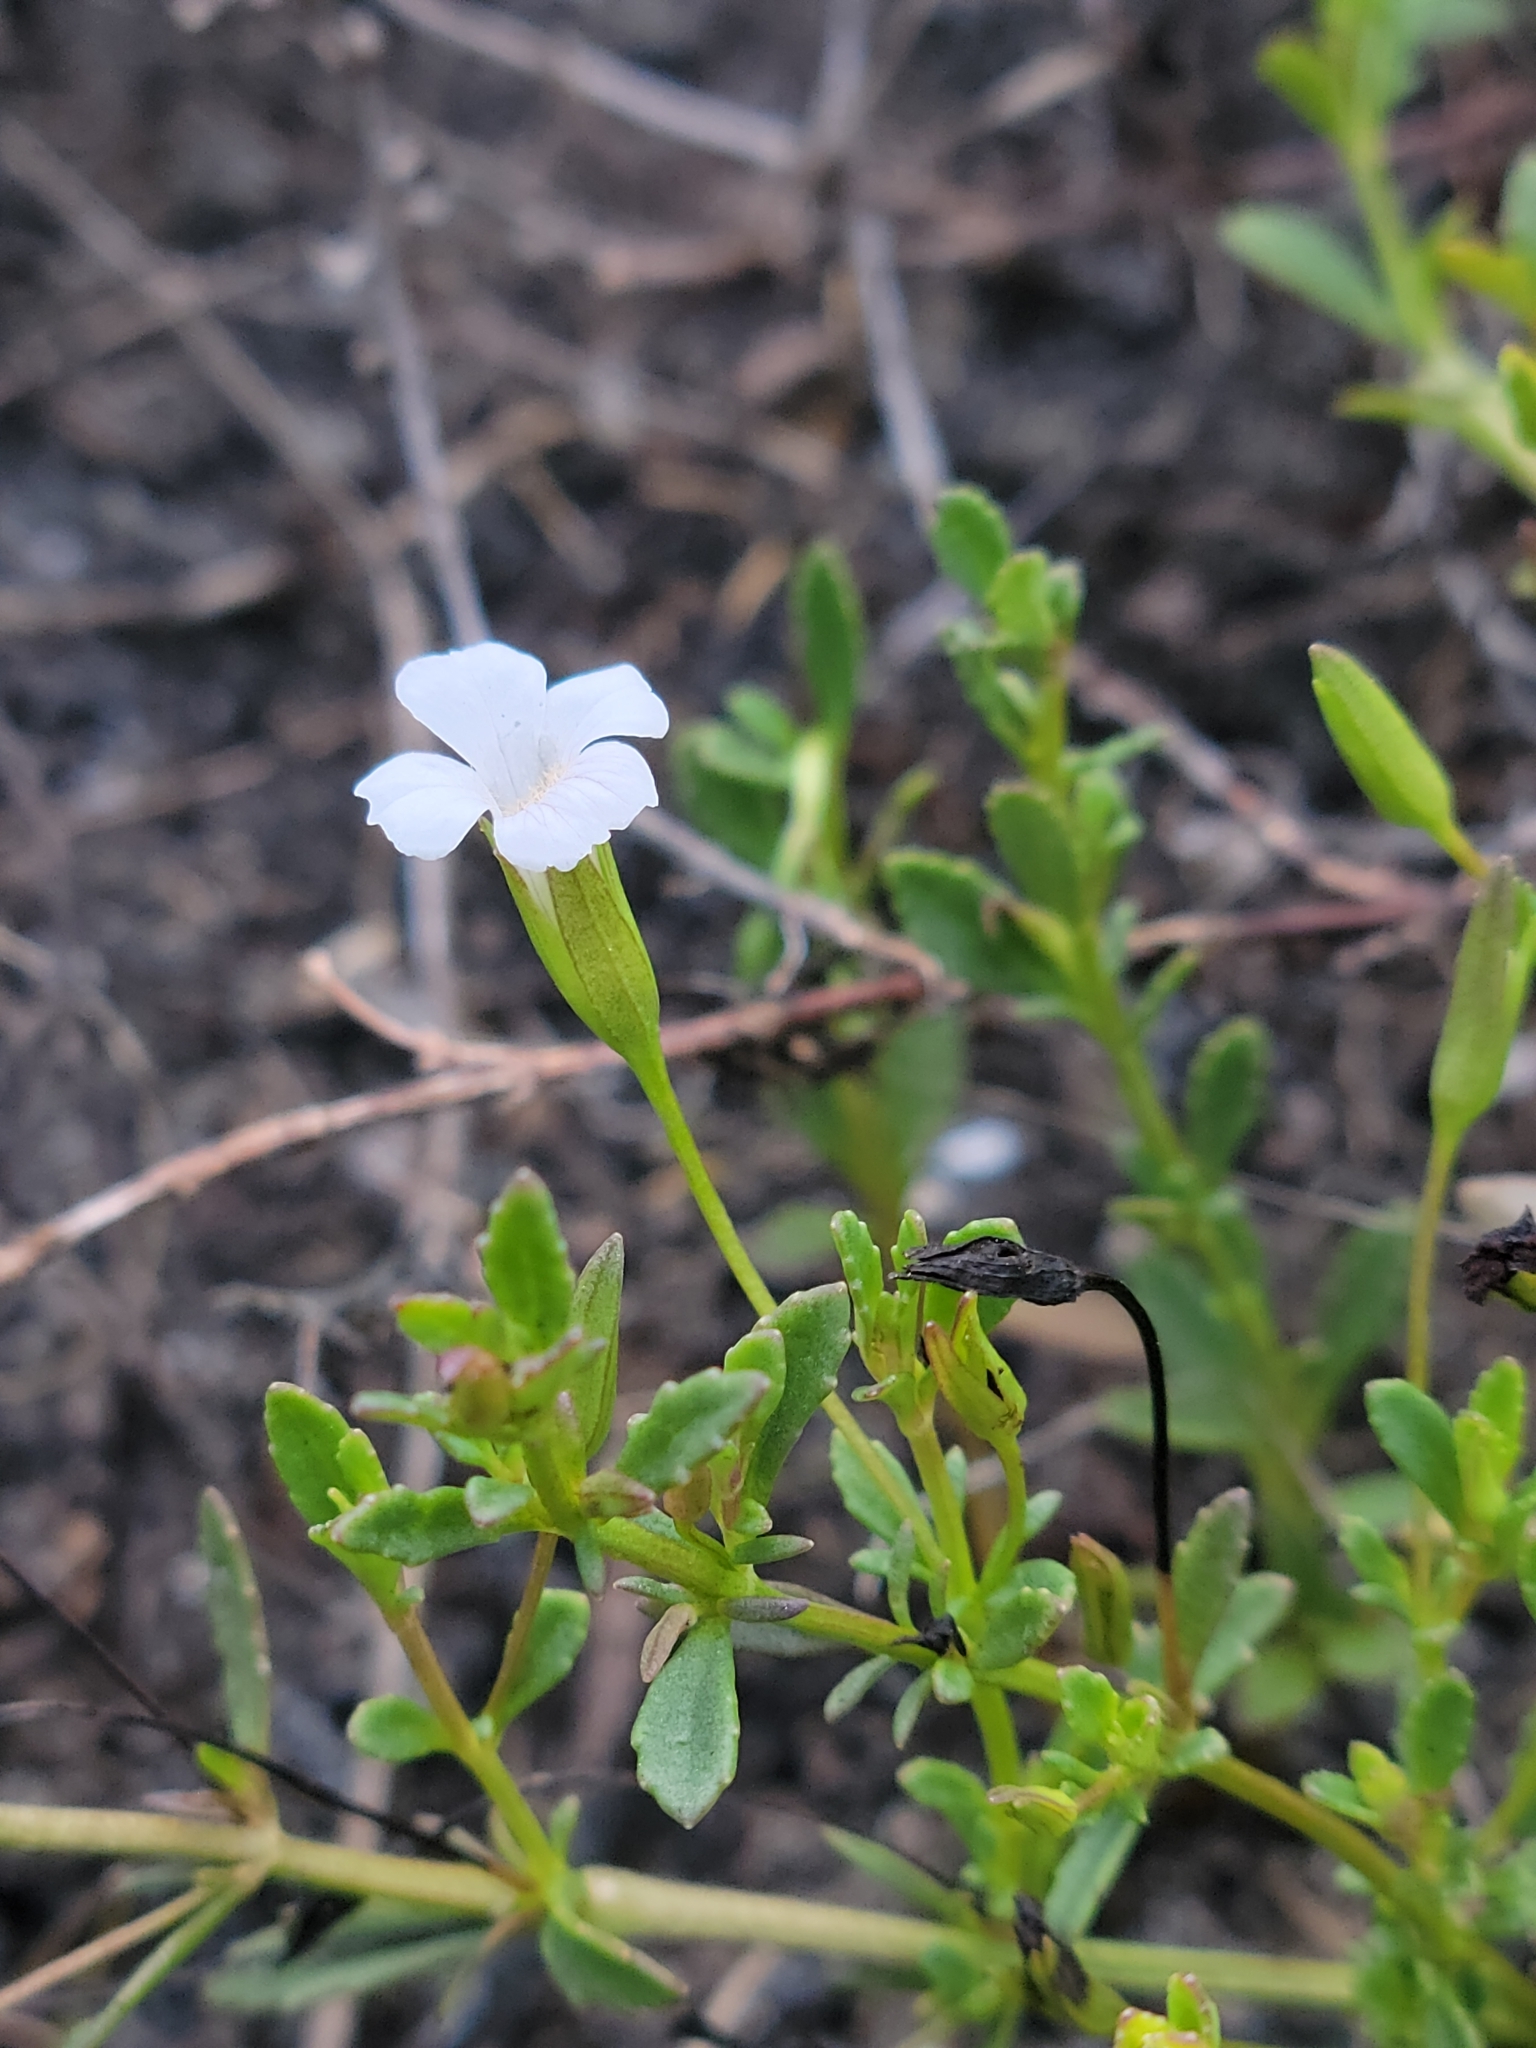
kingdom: Plantae
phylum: Tracheophyta
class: Magnoliopsida
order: Lamiales
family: Plantaginaceae
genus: Mecardonia
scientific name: Mecardonia acuminata
